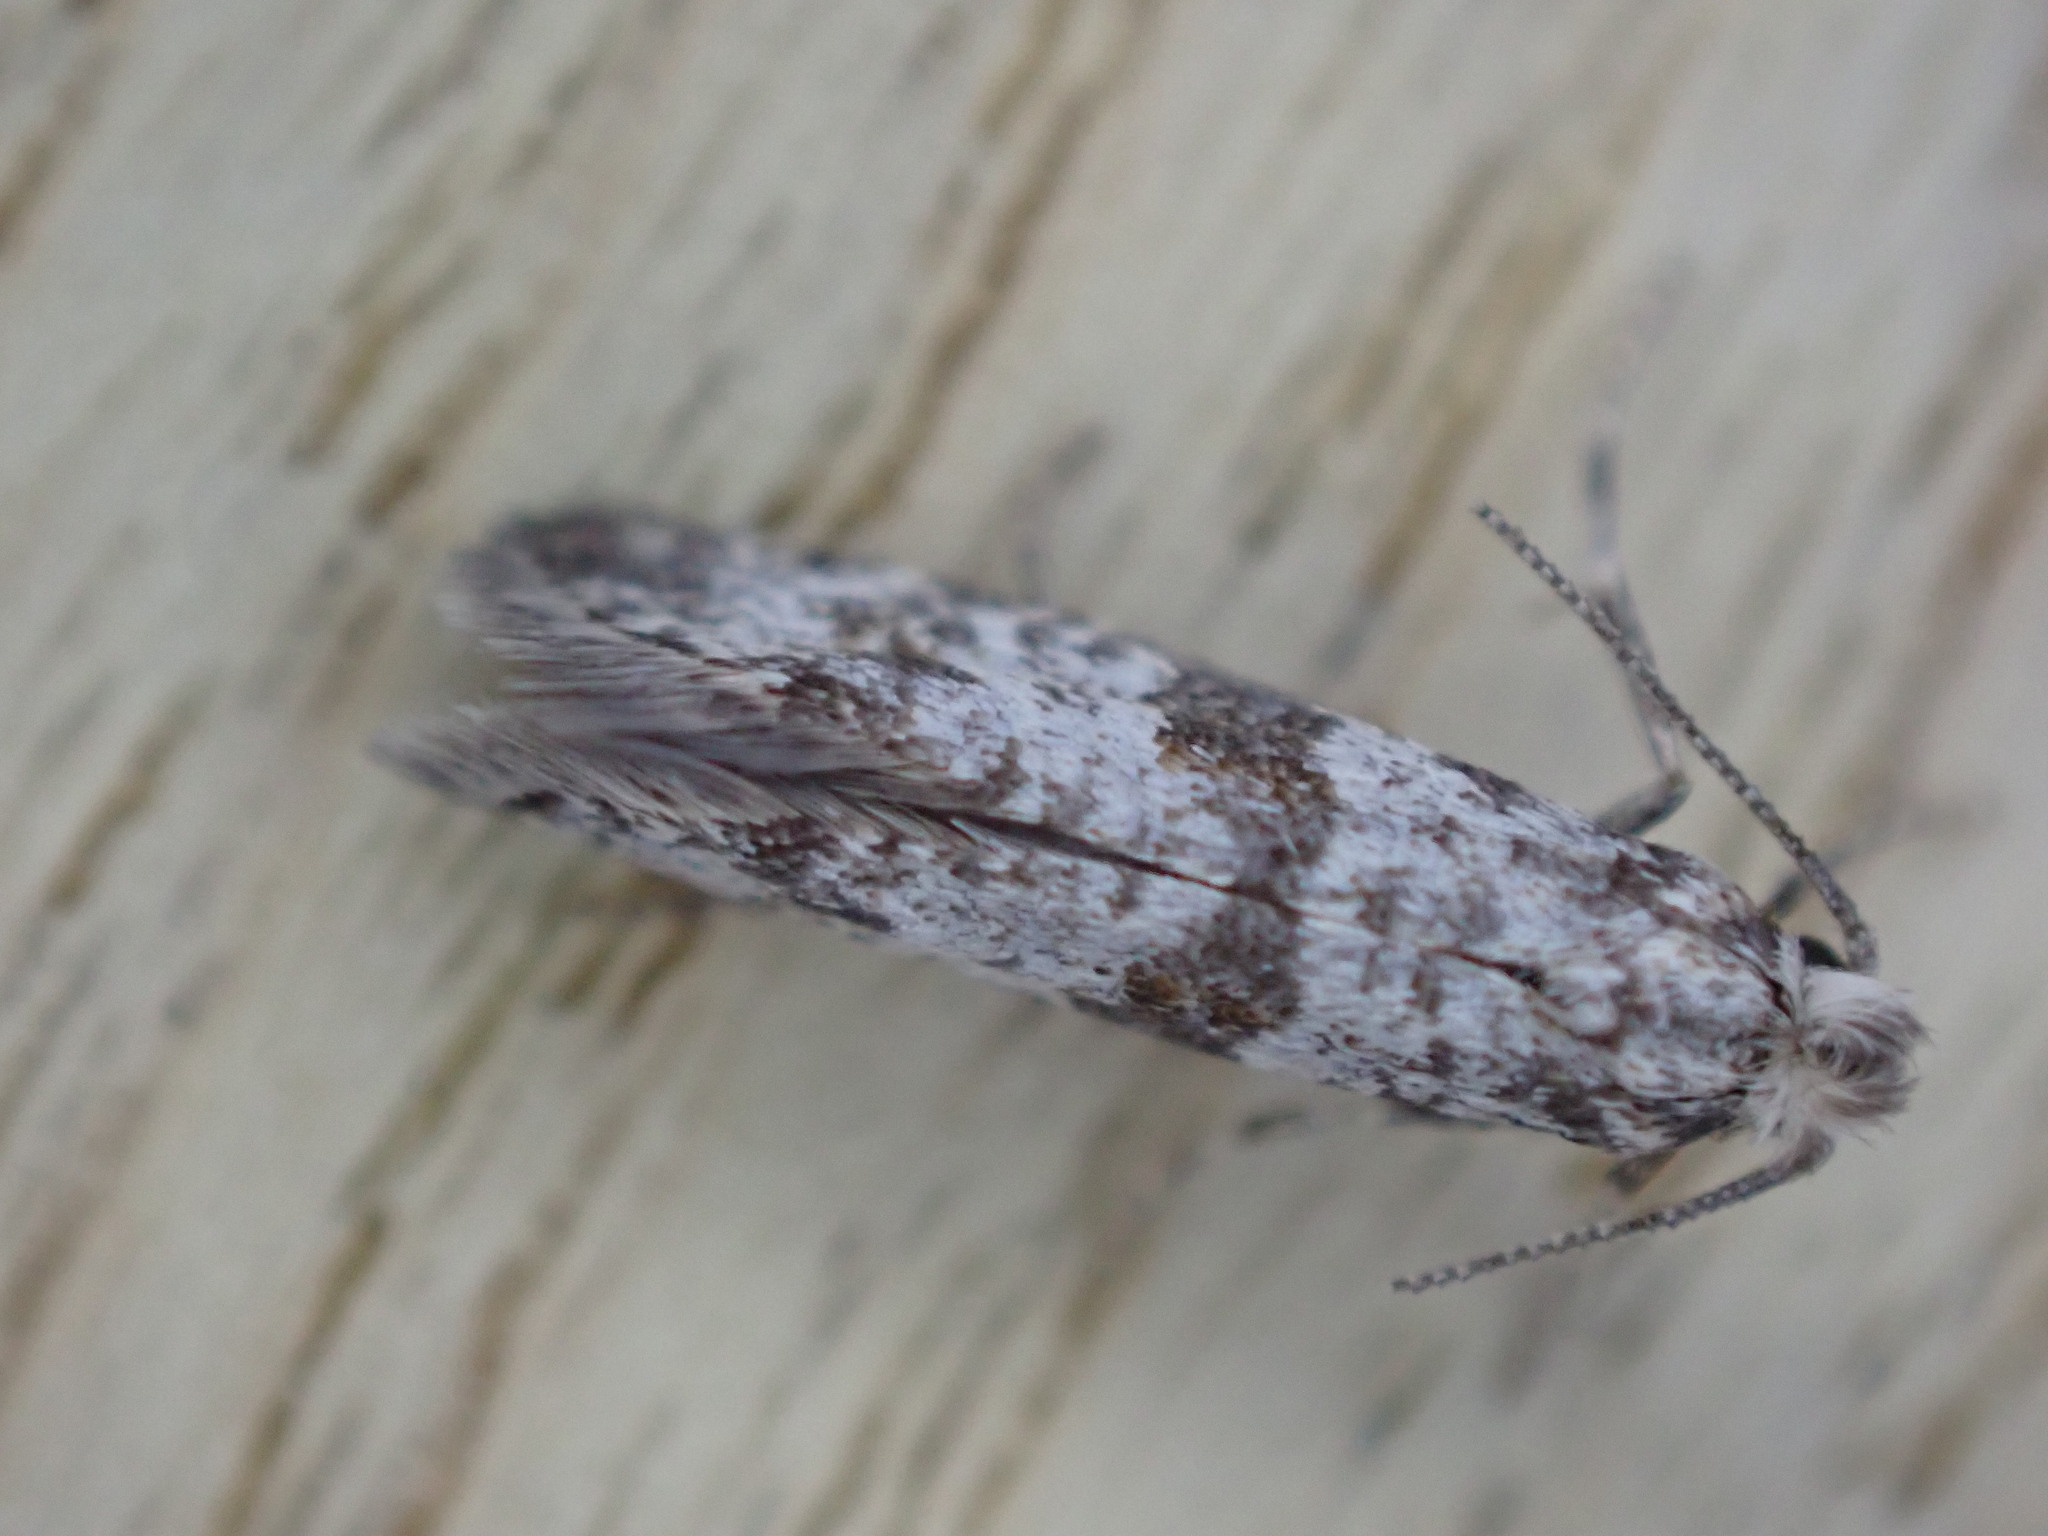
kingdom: Animalia
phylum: Arthropoda
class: Insecta
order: Lepidoptera
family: Yponomeutidae
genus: Scythropia
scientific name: Scythropia crataegella
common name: Hawthorn moth
